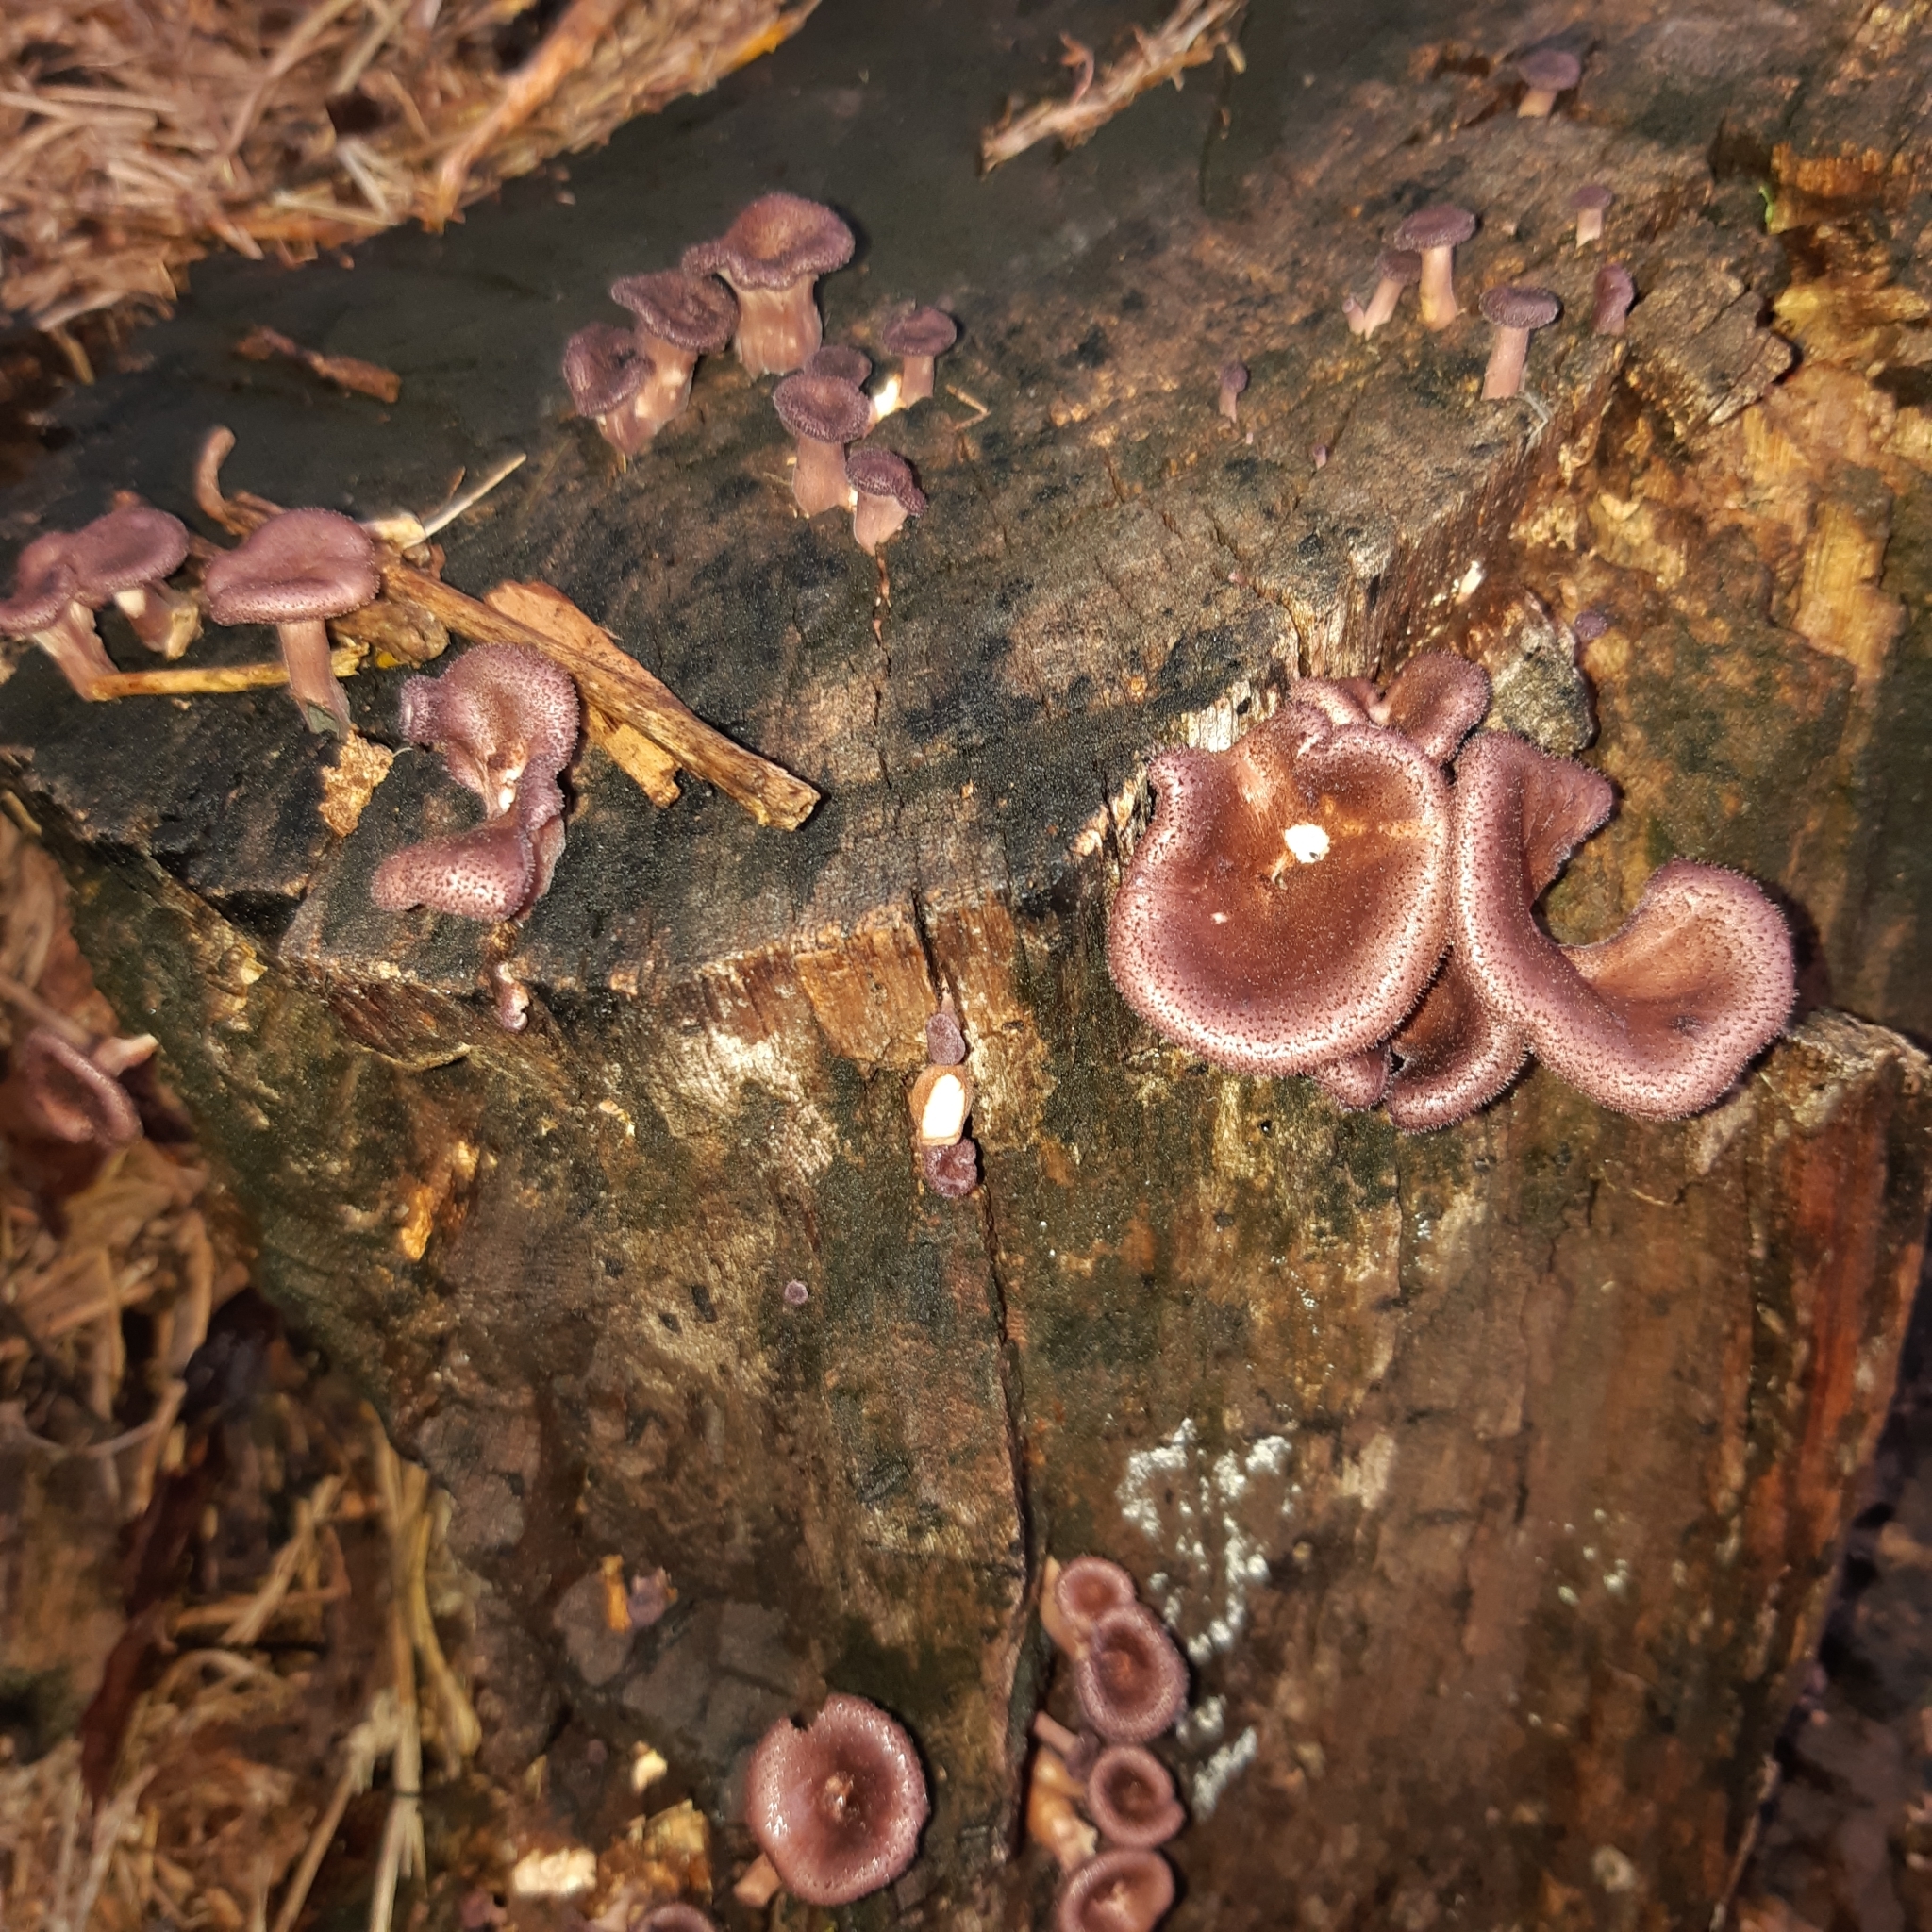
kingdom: Fungi
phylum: Basidiomycota
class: Agaricomycetes
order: Polyporales
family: Panaceae
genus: Panus
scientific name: Panus strigellus
